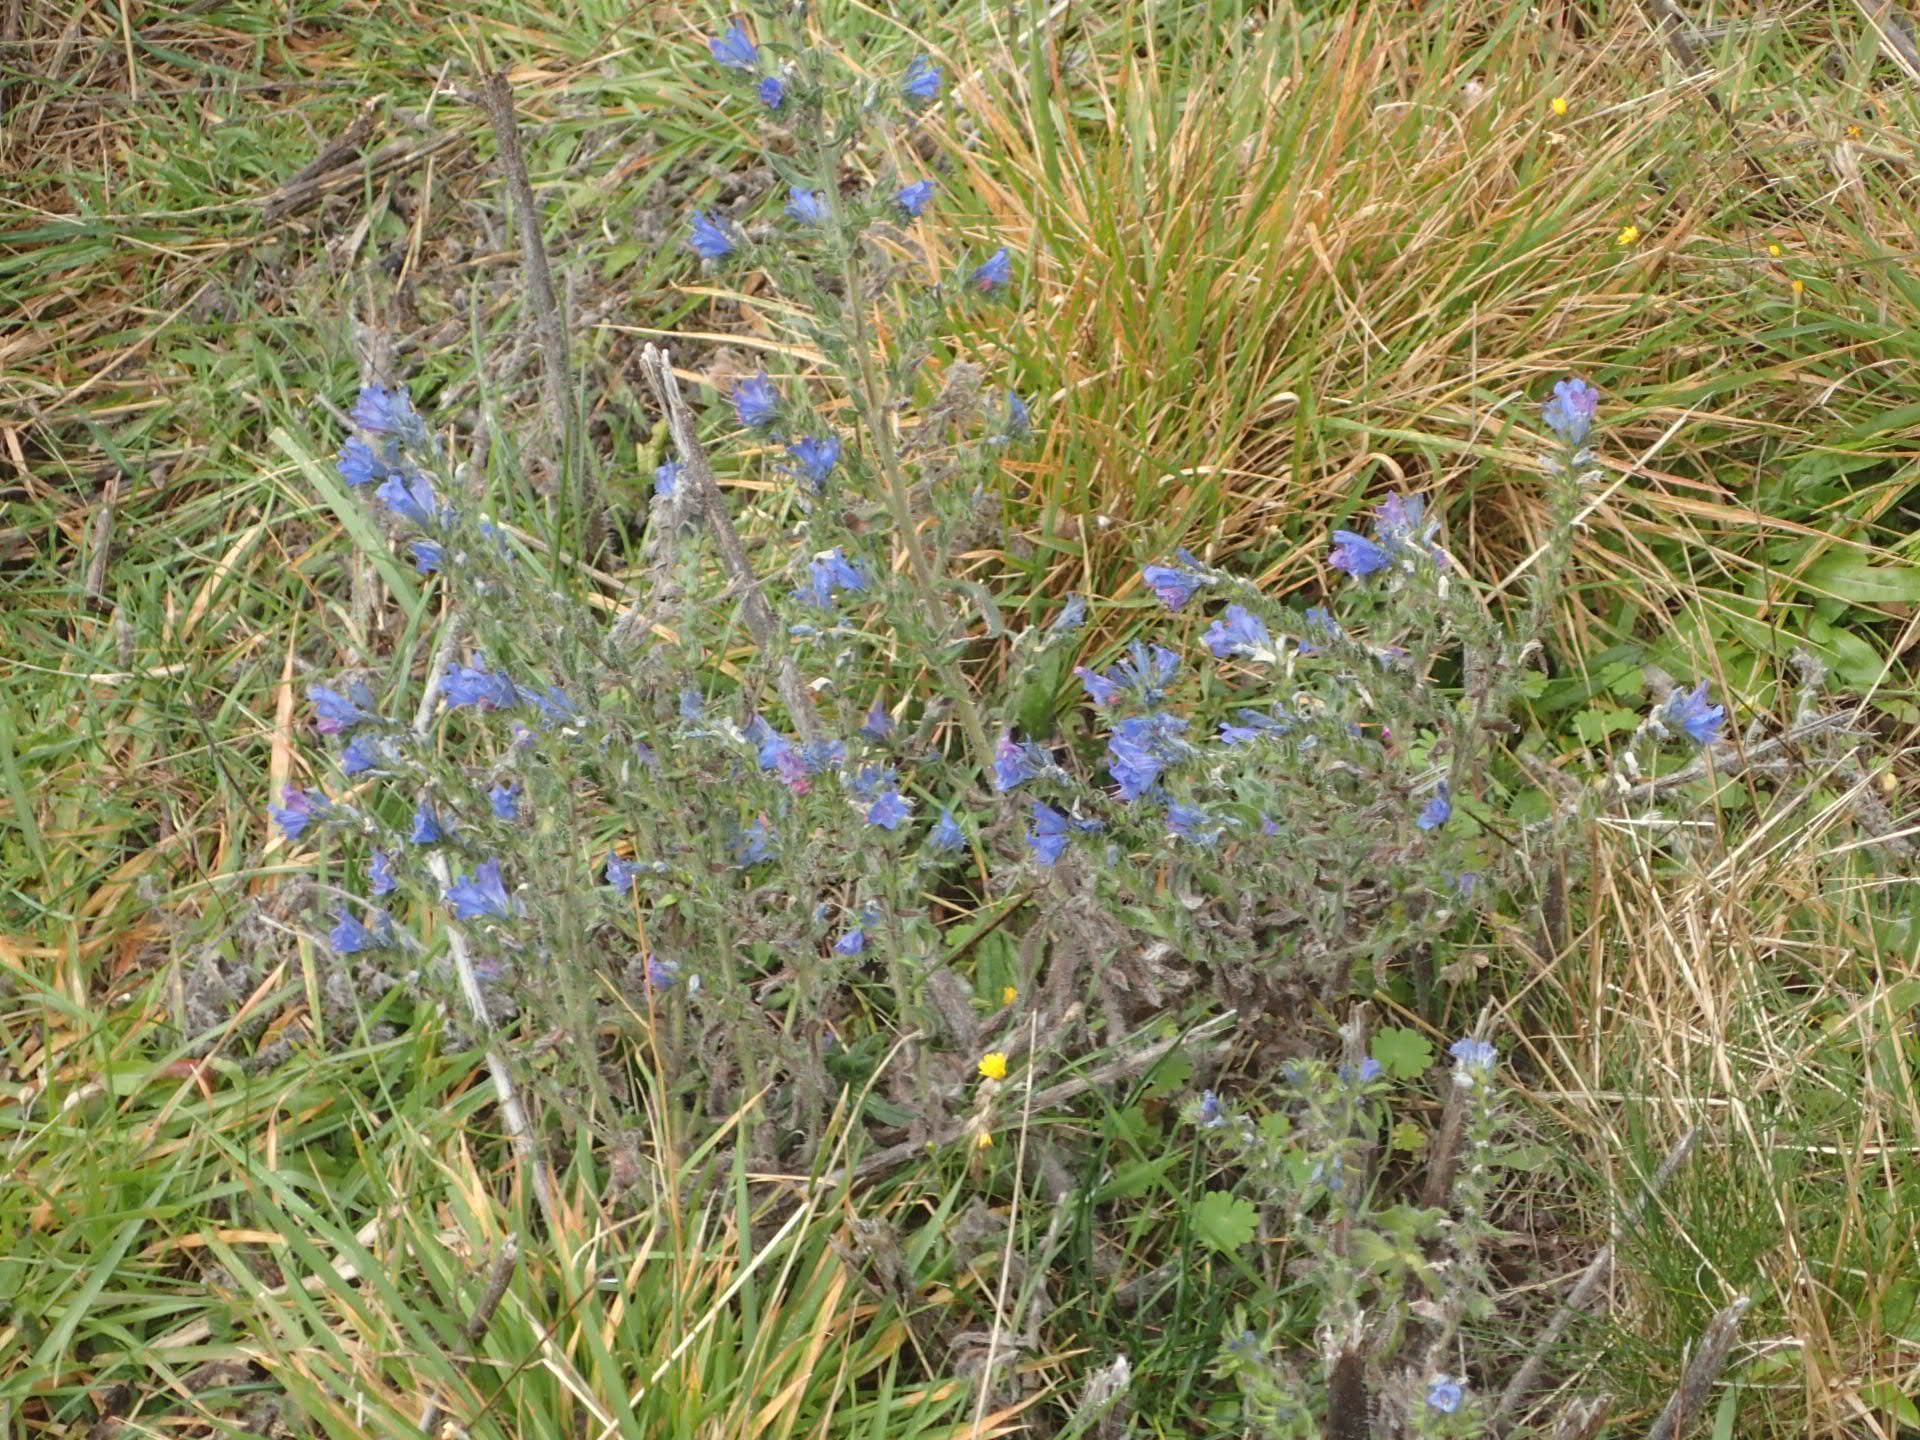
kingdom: Plantae
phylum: Tracheophyta
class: Magnoliopsida
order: Boraginales
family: Boraginaceae
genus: Echium
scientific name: Echium vulgare
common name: Common viper's bugloss
